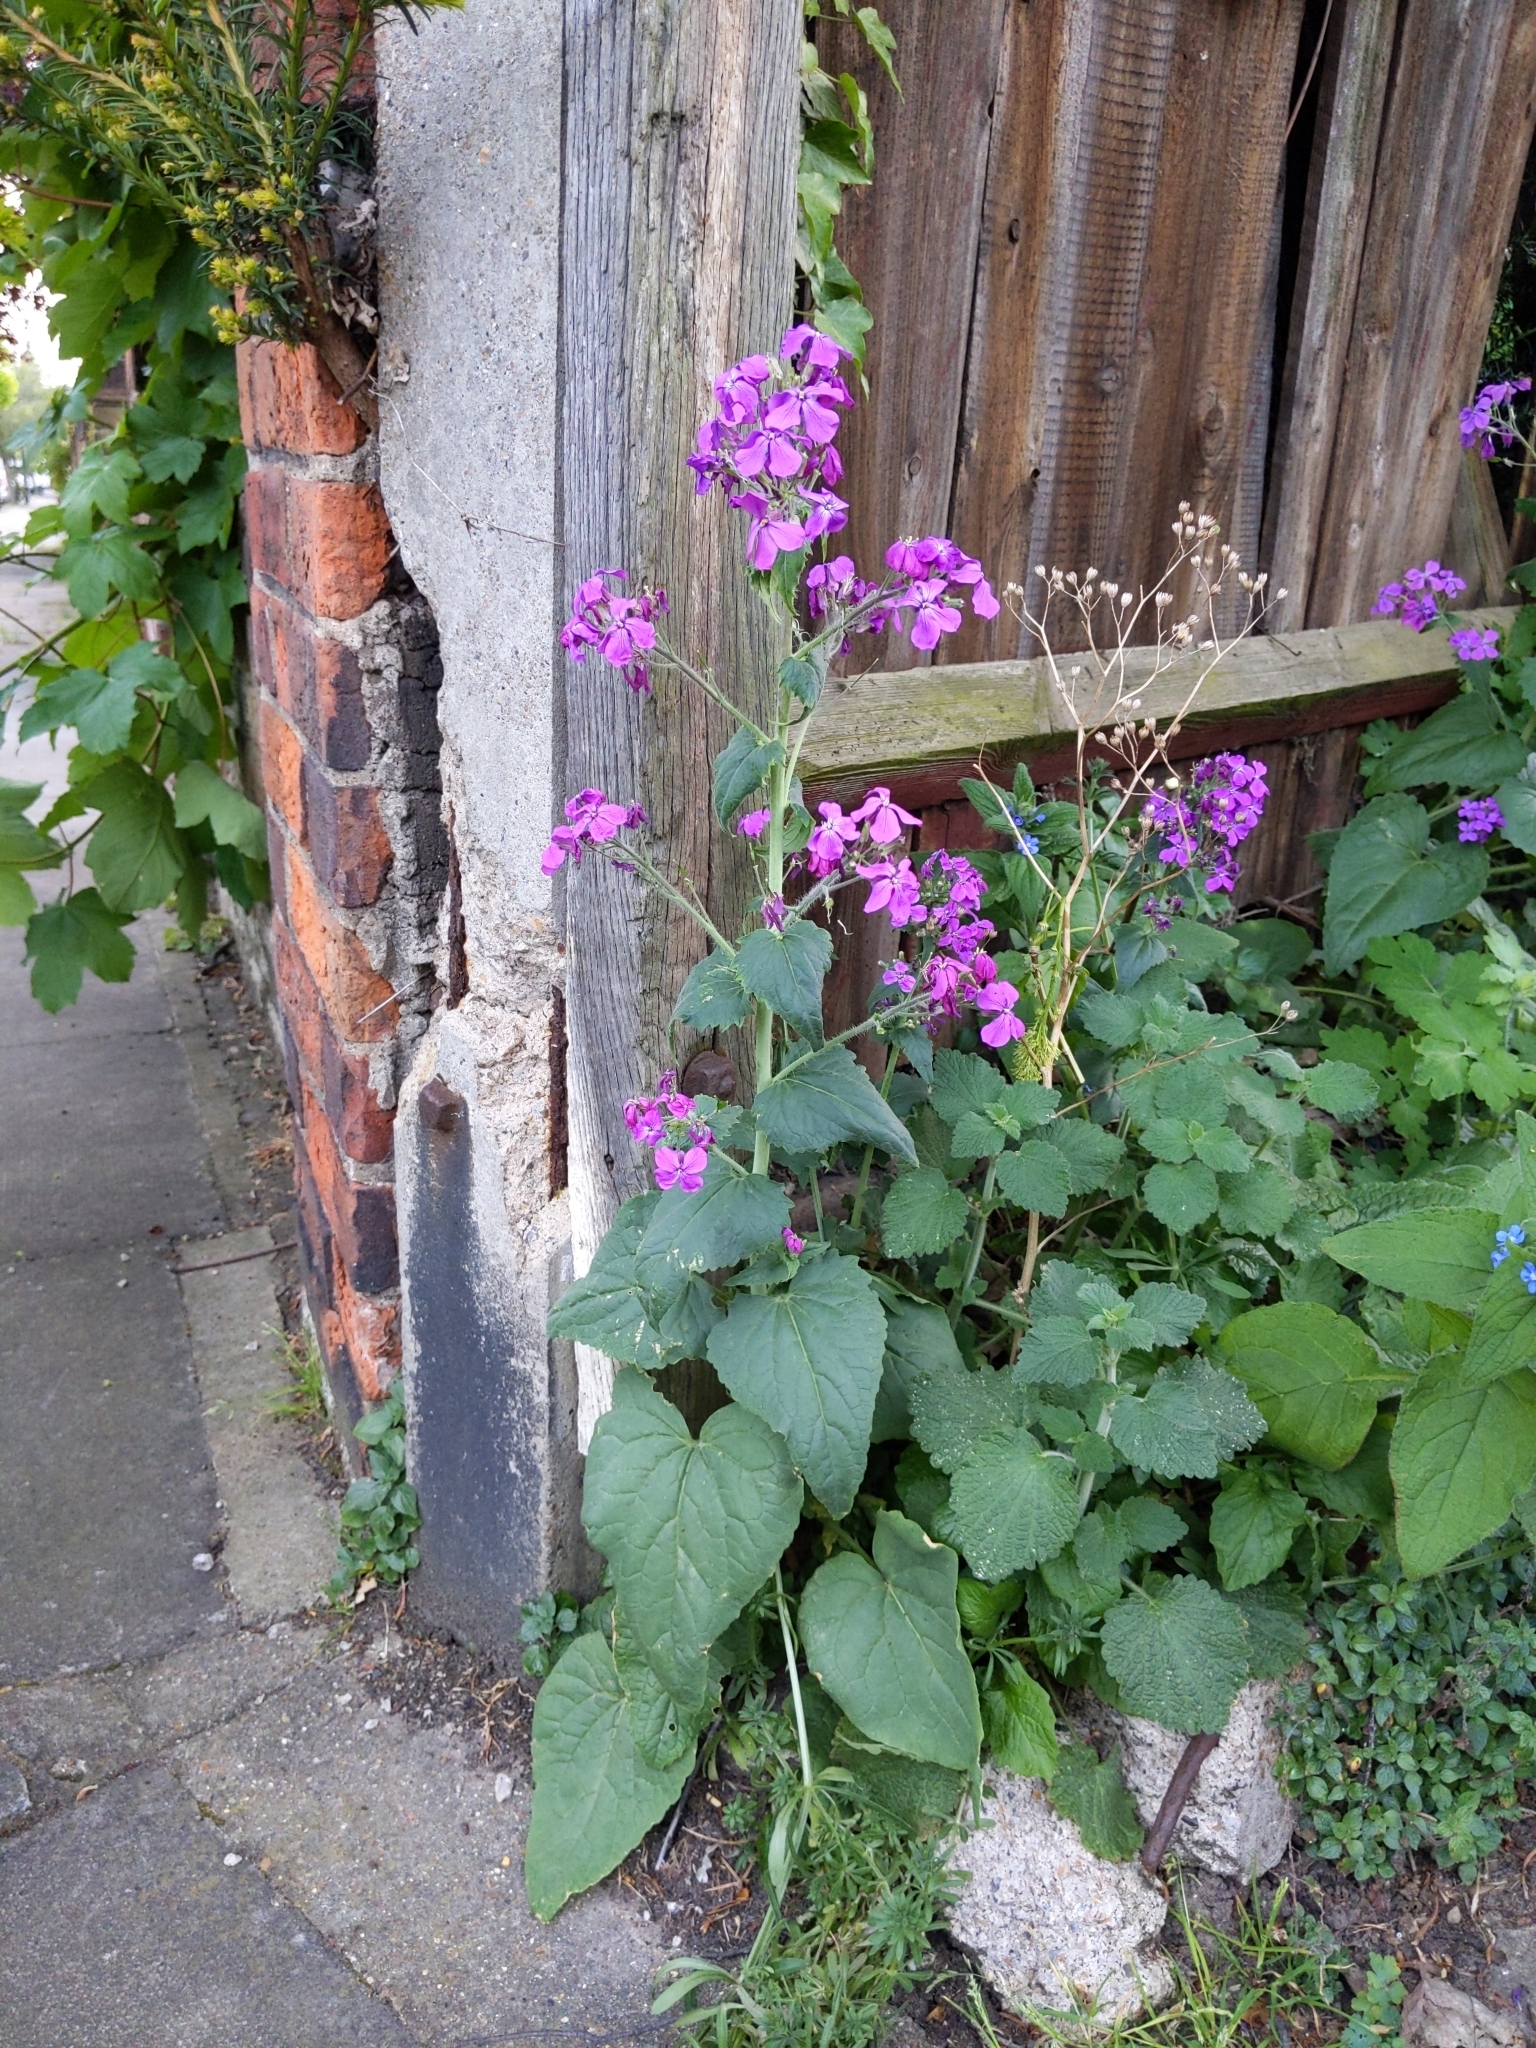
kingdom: Plantae
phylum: Tracheophyta
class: Magnoliopsida
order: Brassicales
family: Brassicaceae
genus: Lunaria
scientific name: Lunaria annua
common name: Honesty
